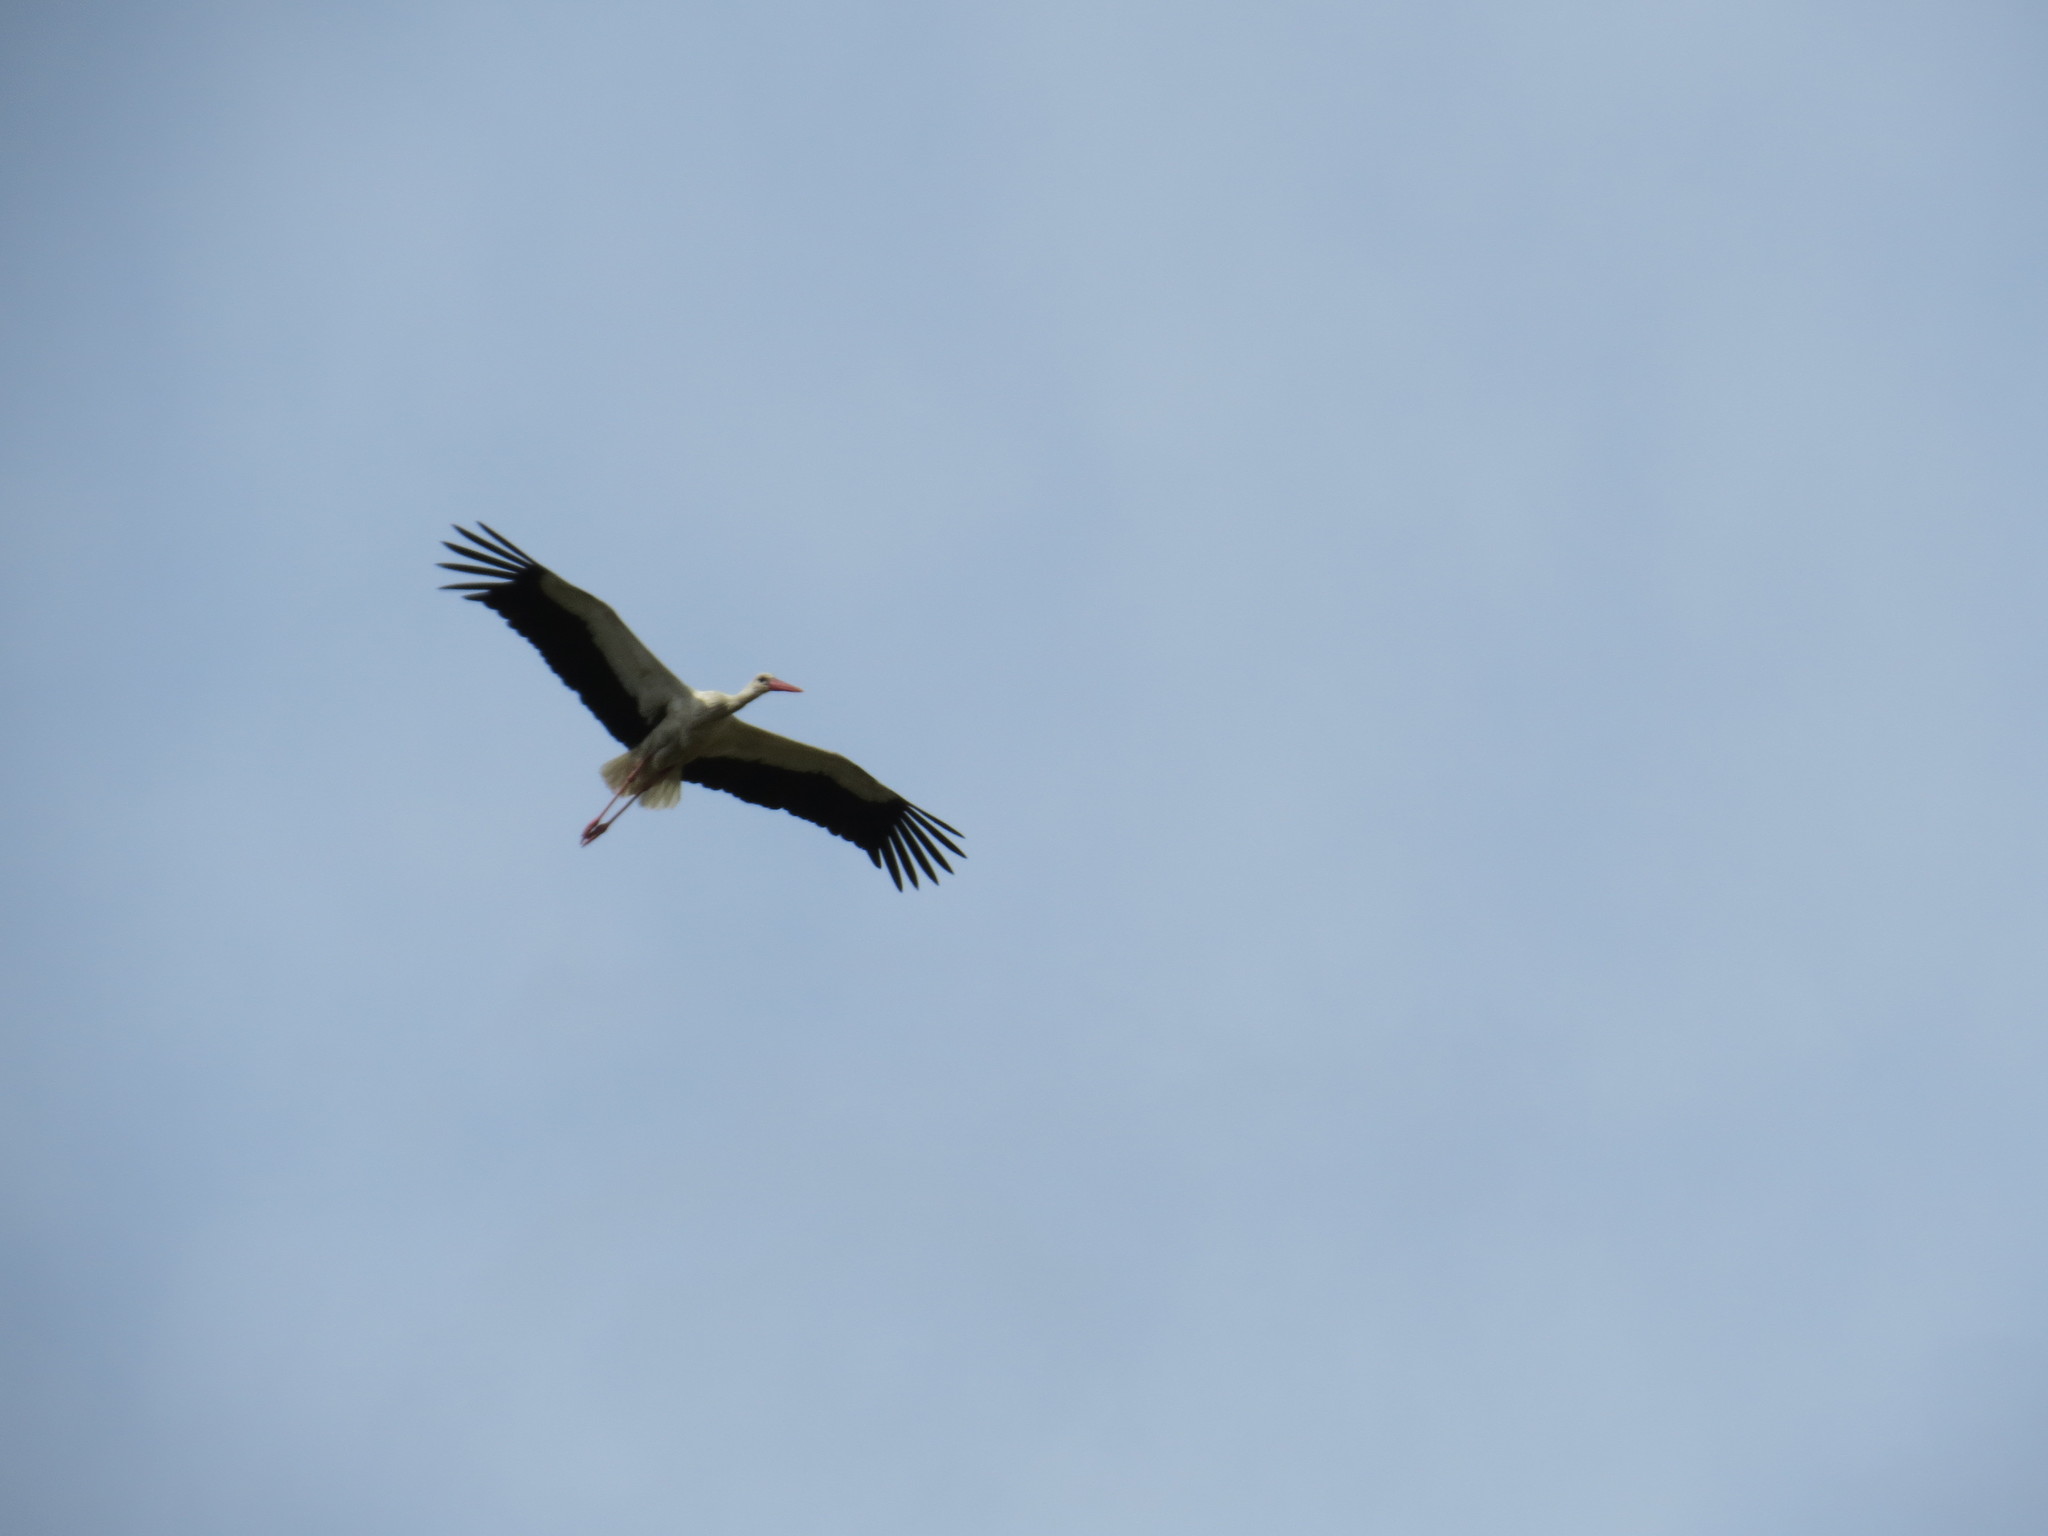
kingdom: Animalia
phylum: Chordata
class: Aves
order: Ciconiiformes
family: Ciconiidae
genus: Ciconia
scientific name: Ciconia ciconia
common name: White stork
